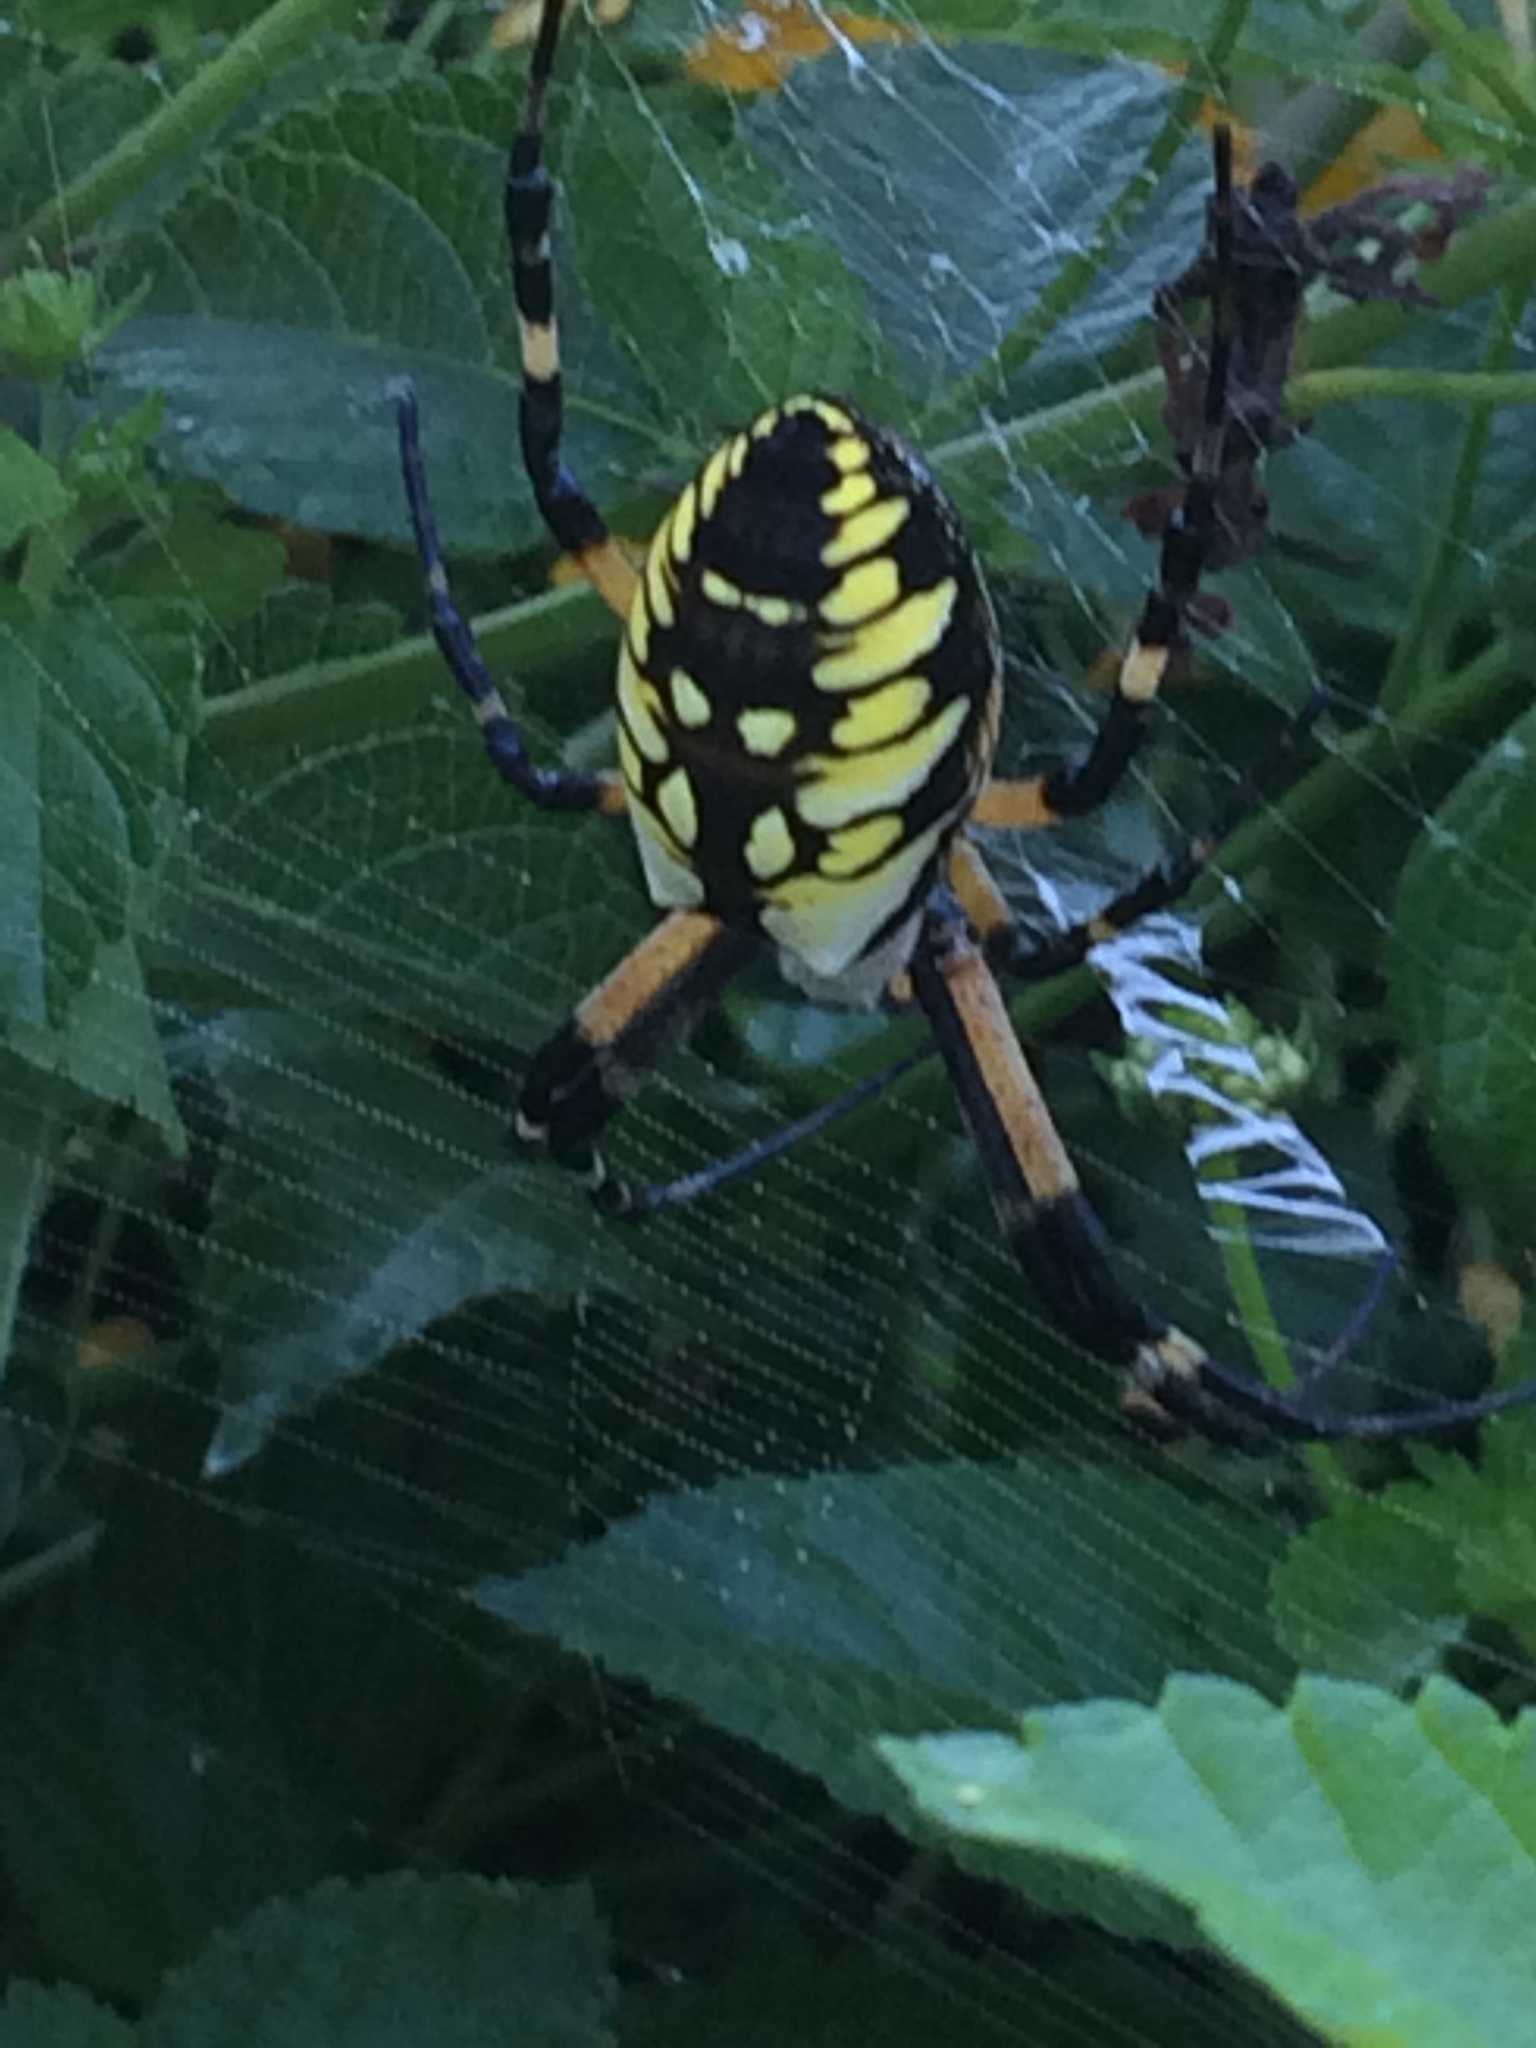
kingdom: Animalia
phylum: Arthropoda
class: Arachnida
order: Araneae
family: Araneidae
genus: Argiope
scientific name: Argiope aurantia
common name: Orb weavers
